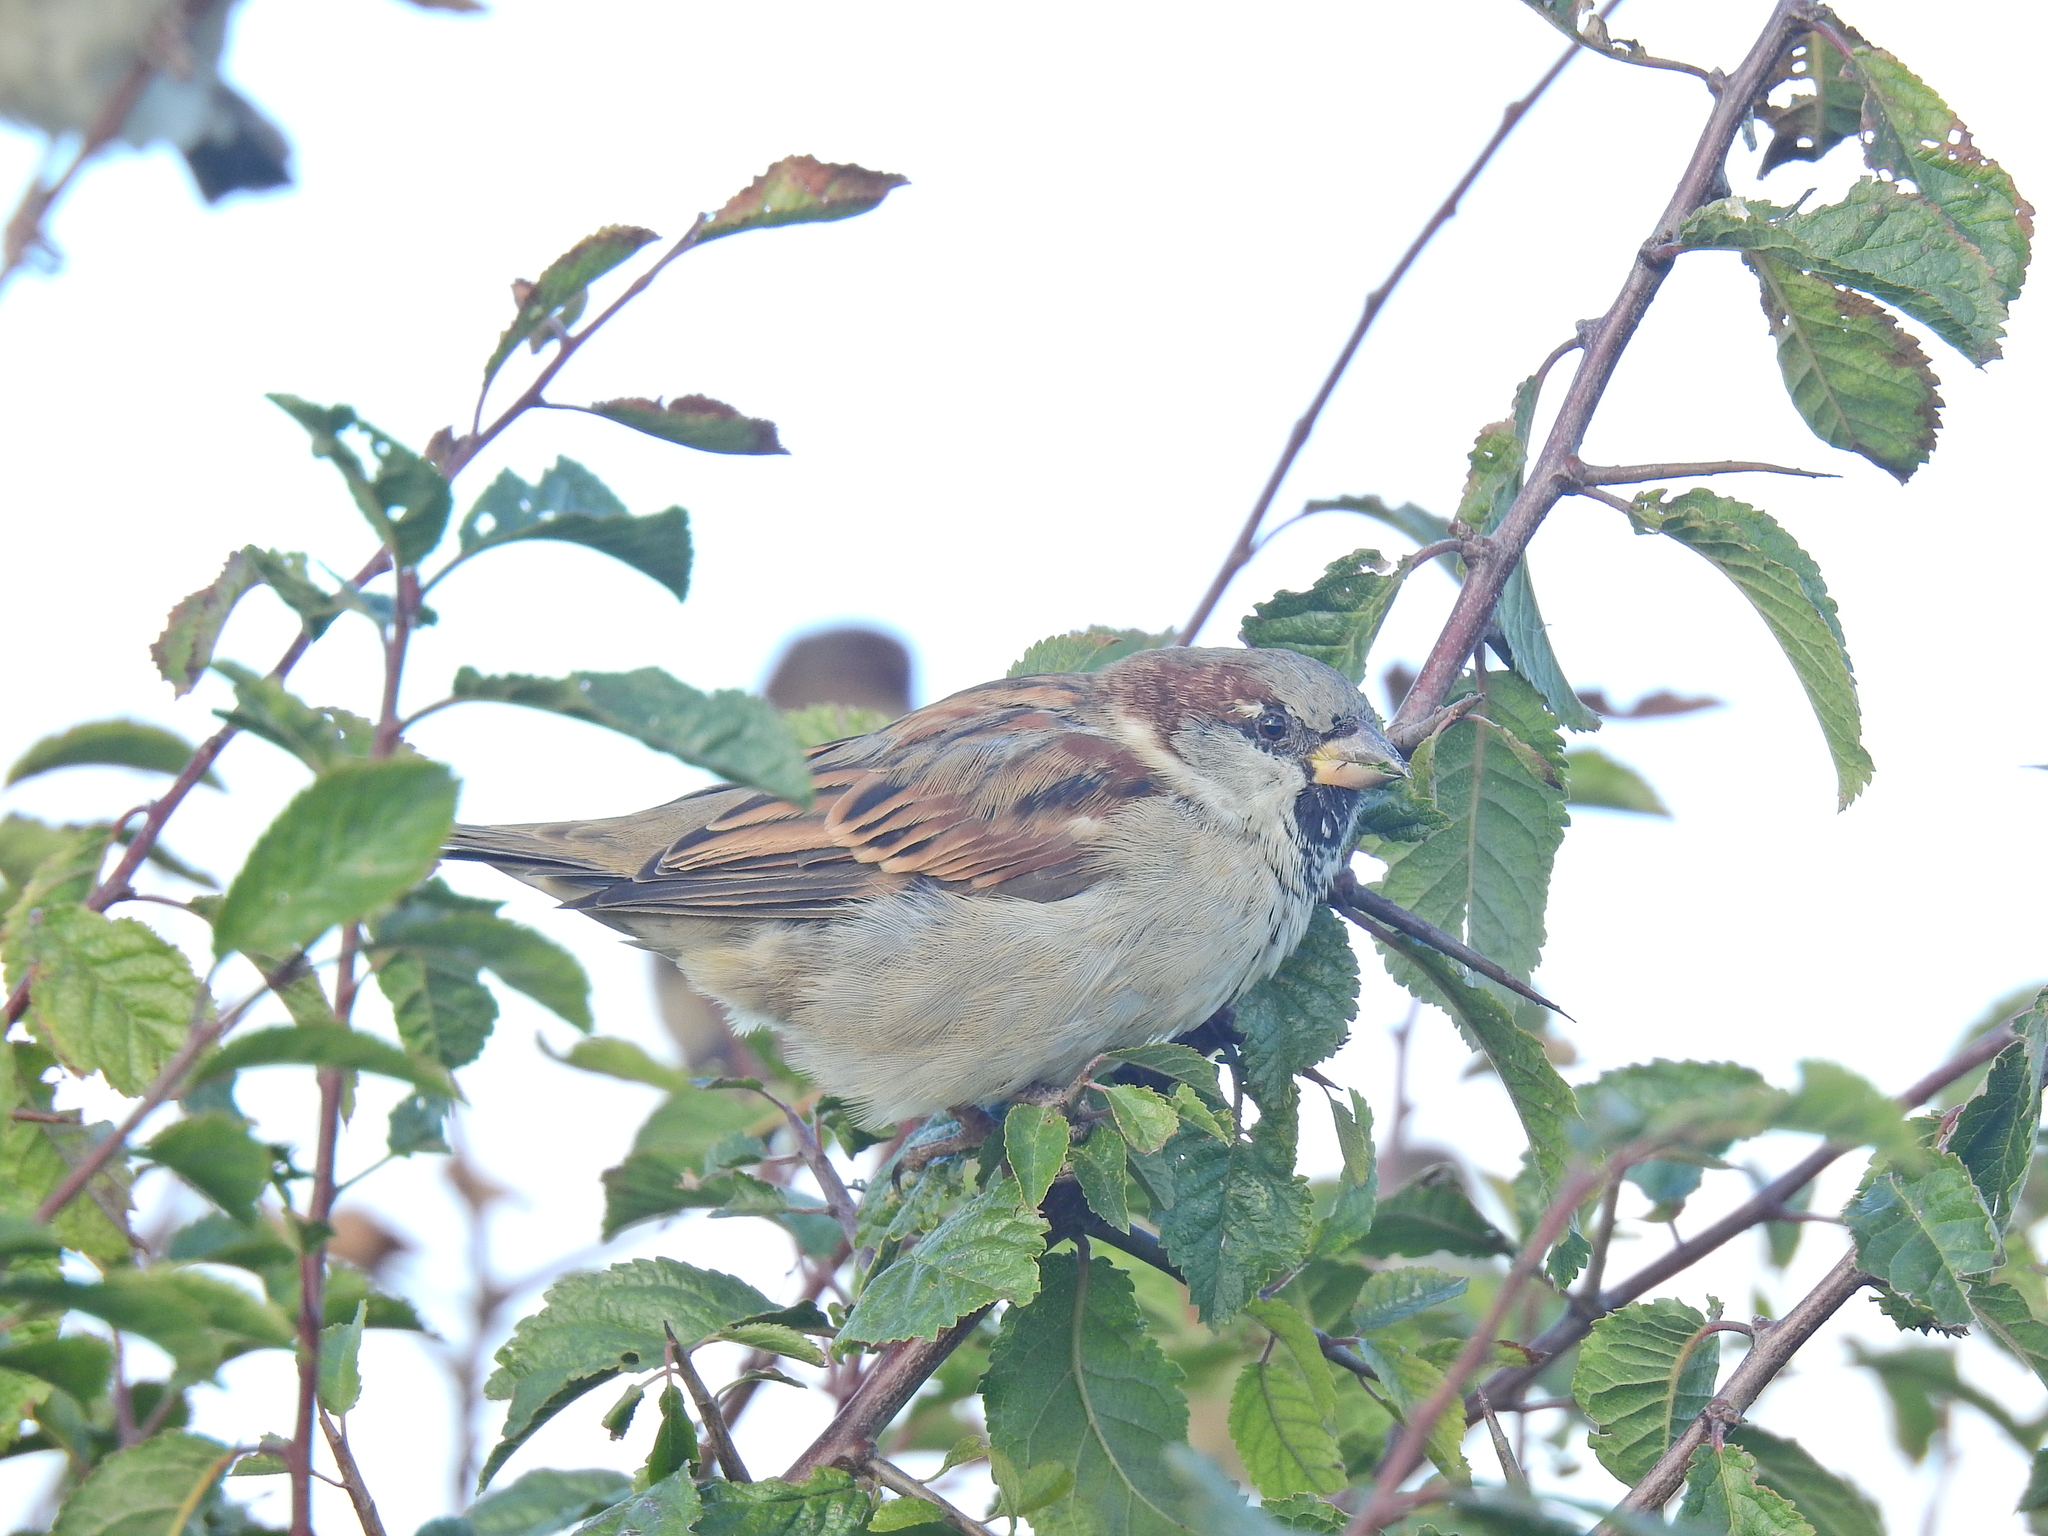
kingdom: Animalia
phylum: Chordata
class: Aves
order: Passeriformes
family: Passeridae
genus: Passer
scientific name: Passer domesticus
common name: House sparrow
